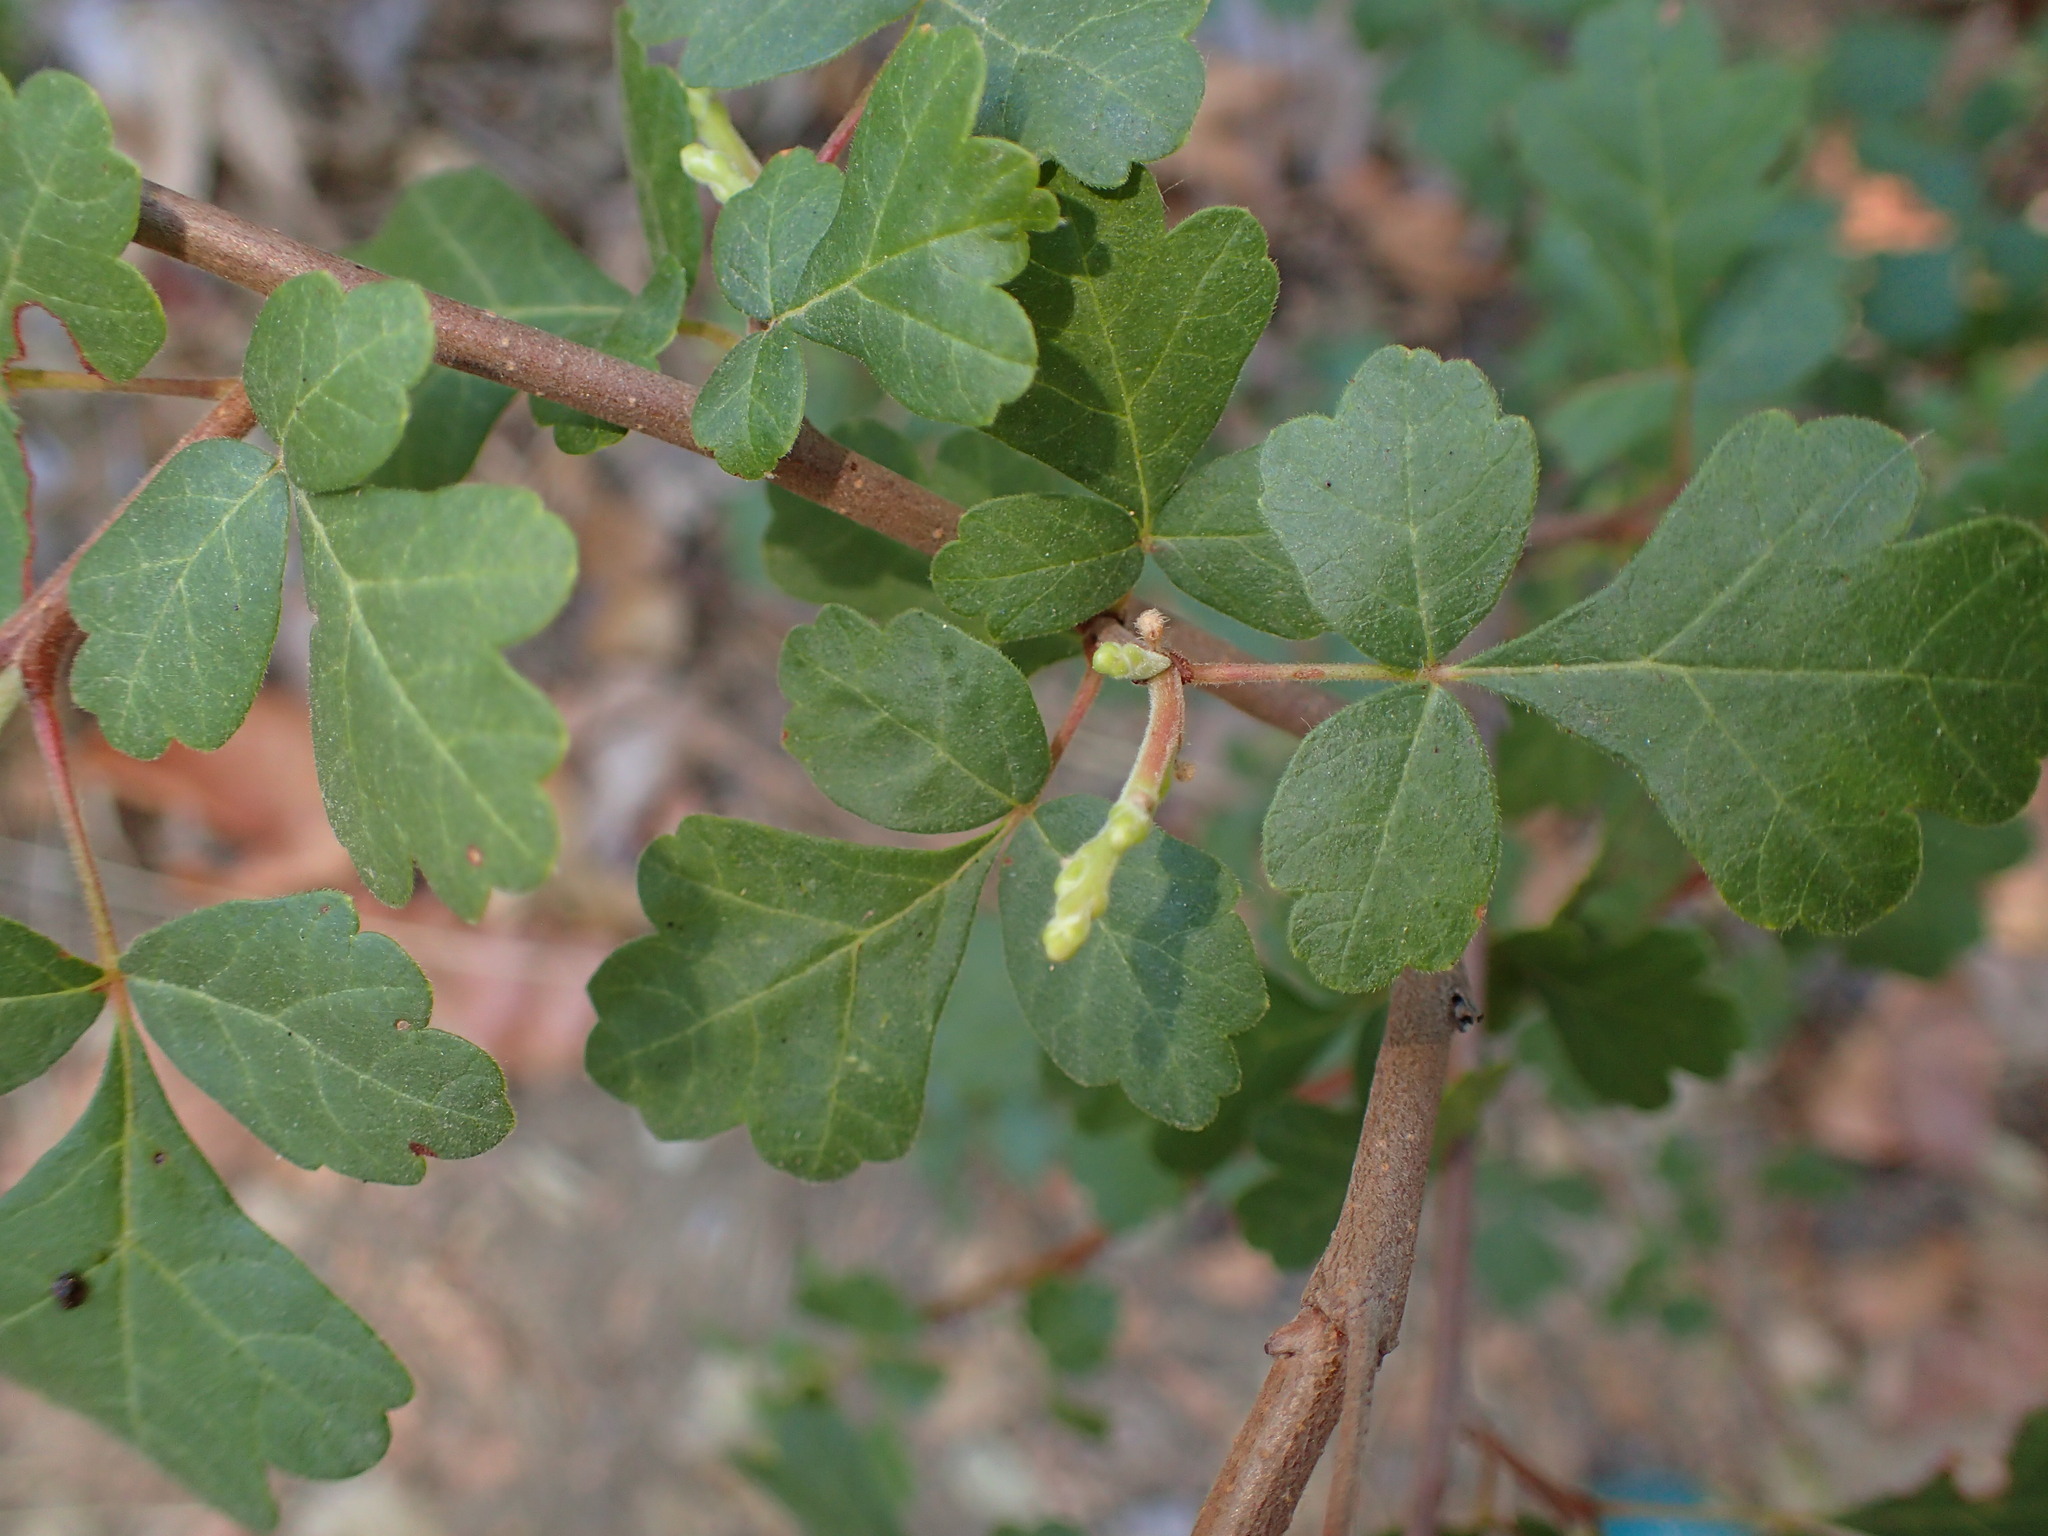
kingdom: Plantae
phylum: Tracheophyta
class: Magnoliopsida
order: Sapindales
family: Anacardiaceae
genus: Rhus
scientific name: Rhus aromatica
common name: Aromatic sumac
